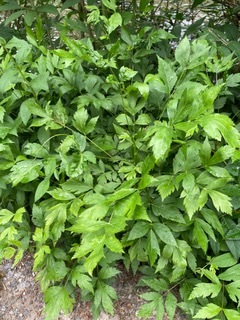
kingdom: Plantae
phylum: Tracheophyta
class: Magnoliopsida
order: Ranunculales
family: Ranunculaceae
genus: Xanthorhiza
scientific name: Xanthorhiza simplicissima
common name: Yellowroot
